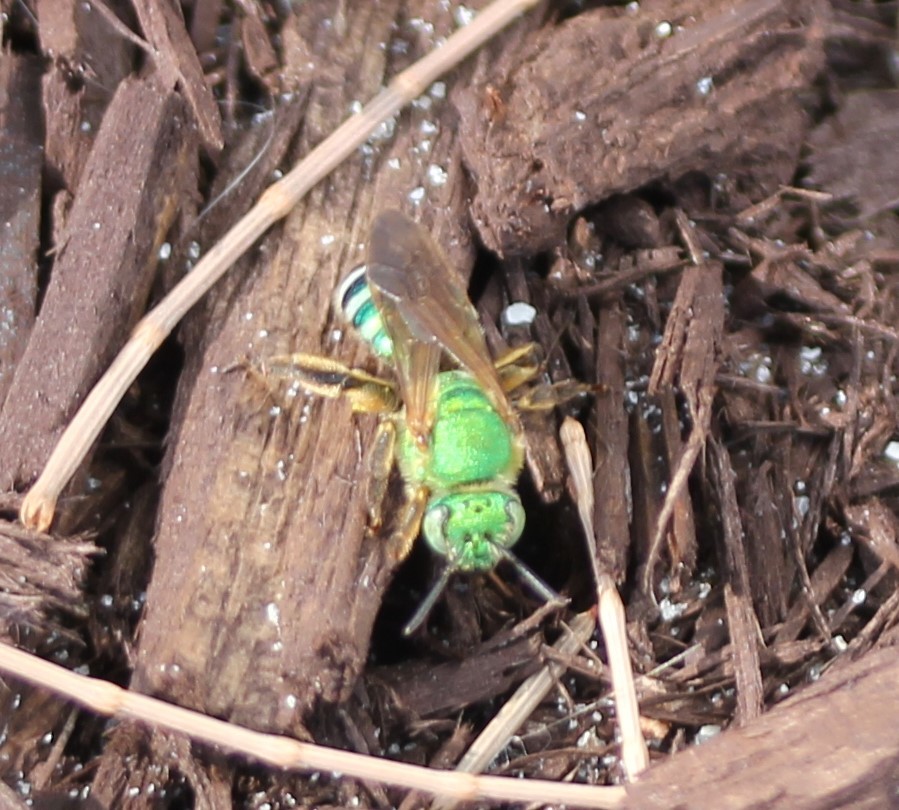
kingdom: Animalia
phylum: Arthropoda
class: Insecta
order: Hymenoptera
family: Halictidae
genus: Agapostemon
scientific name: Agapostemon splendens
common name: Brown-winged striped sweat bee
